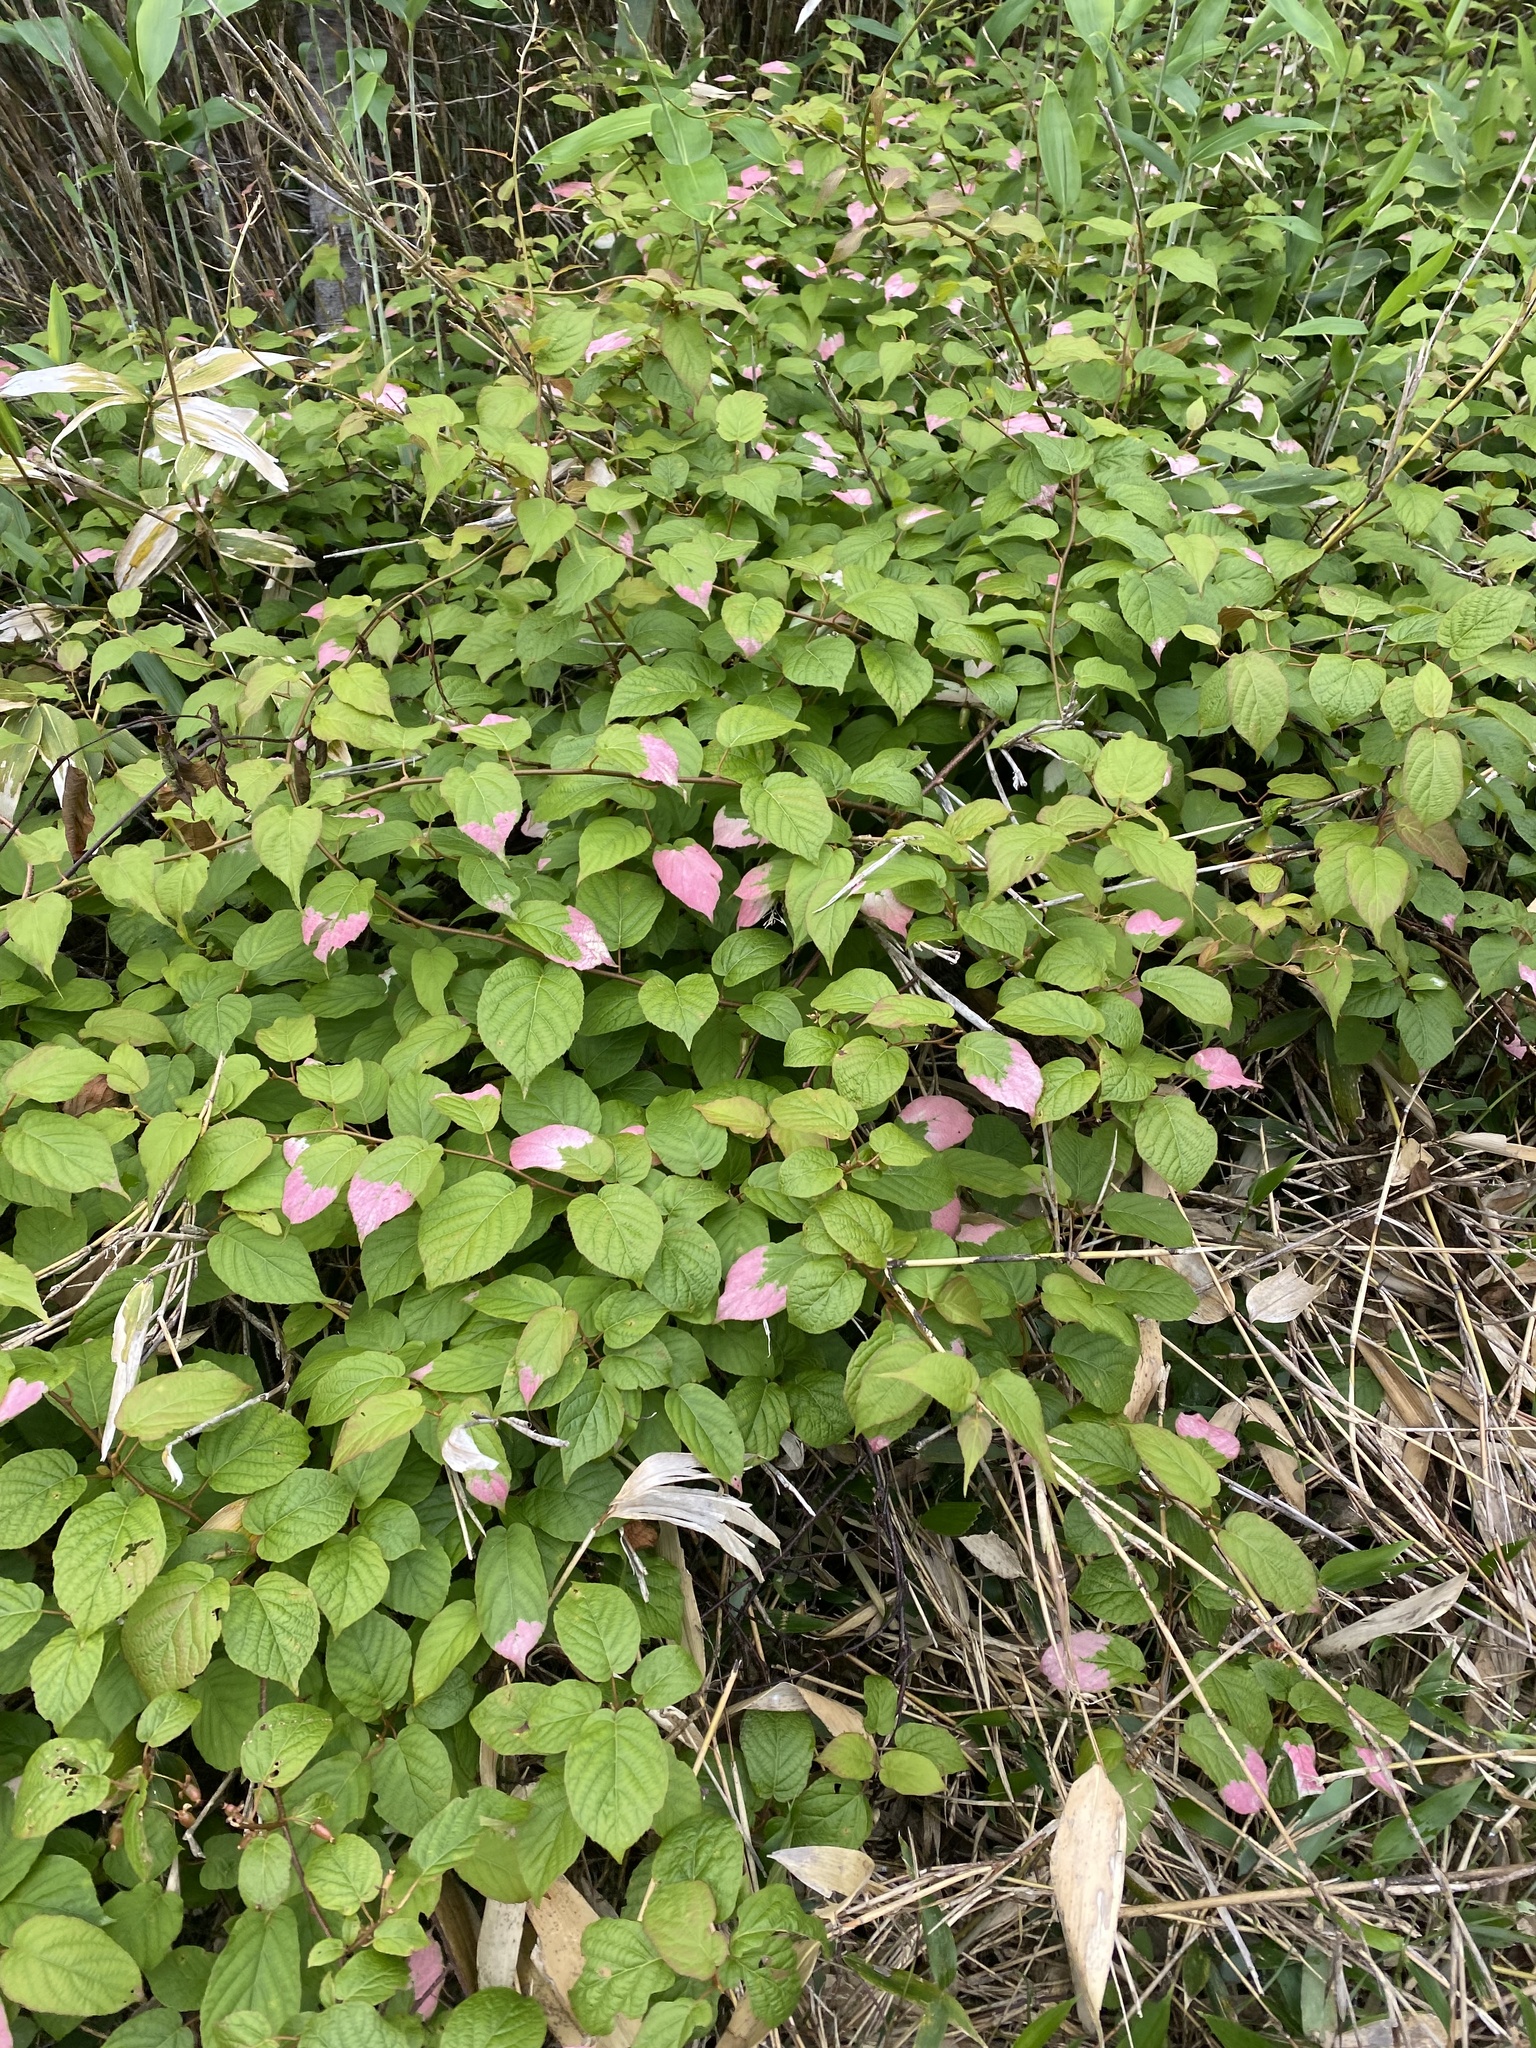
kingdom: Plantae
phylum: Tracheophyta
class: Magnoliopsida
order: Ericales
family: Actinidiaceae
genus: Actinidia
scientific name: Actinidia kolomikta
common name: Arctic beauty kiwi
